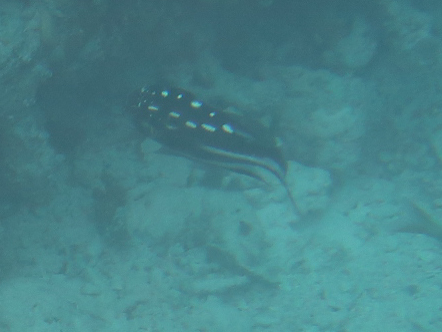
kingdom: Animalia
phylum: Chordata
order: Perciformes
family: Lutjanidae
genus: Macolor
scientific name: Macolor macularis
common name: Midnight snapper
